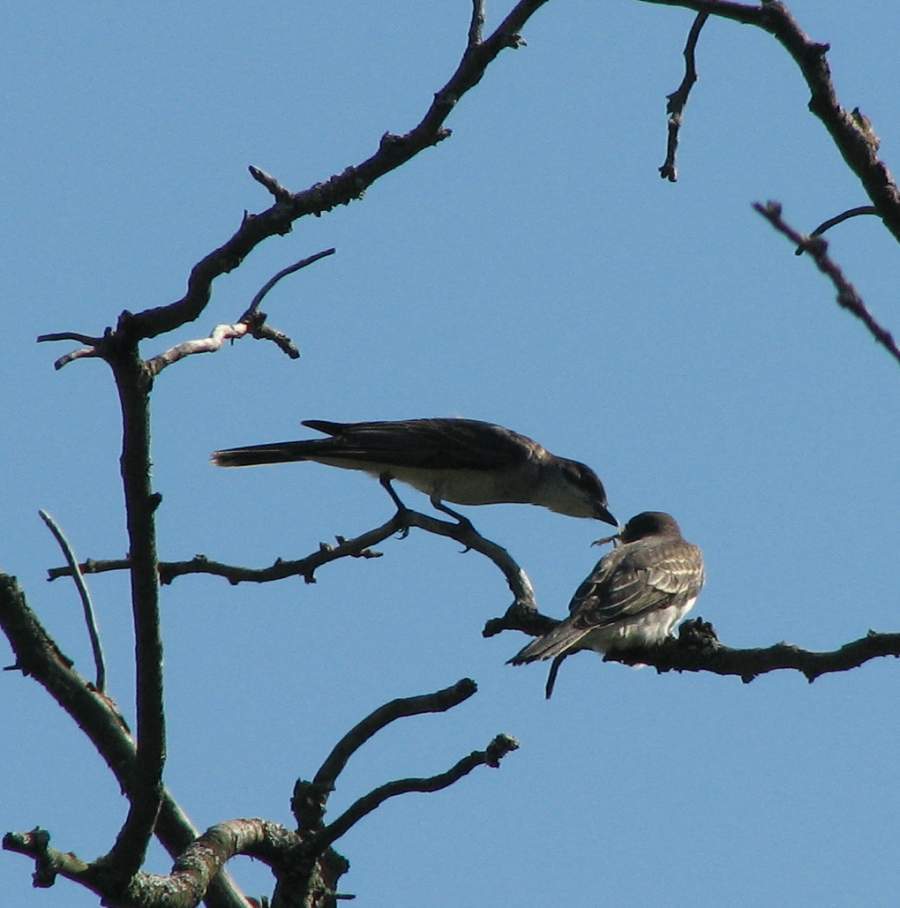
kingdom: Animalia
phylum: Chordata
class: Aves
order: Passeriformes
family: Tyrannidae
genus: Tyrannus
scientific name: Tyrannus tyrannus
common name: Eastern kingbird
